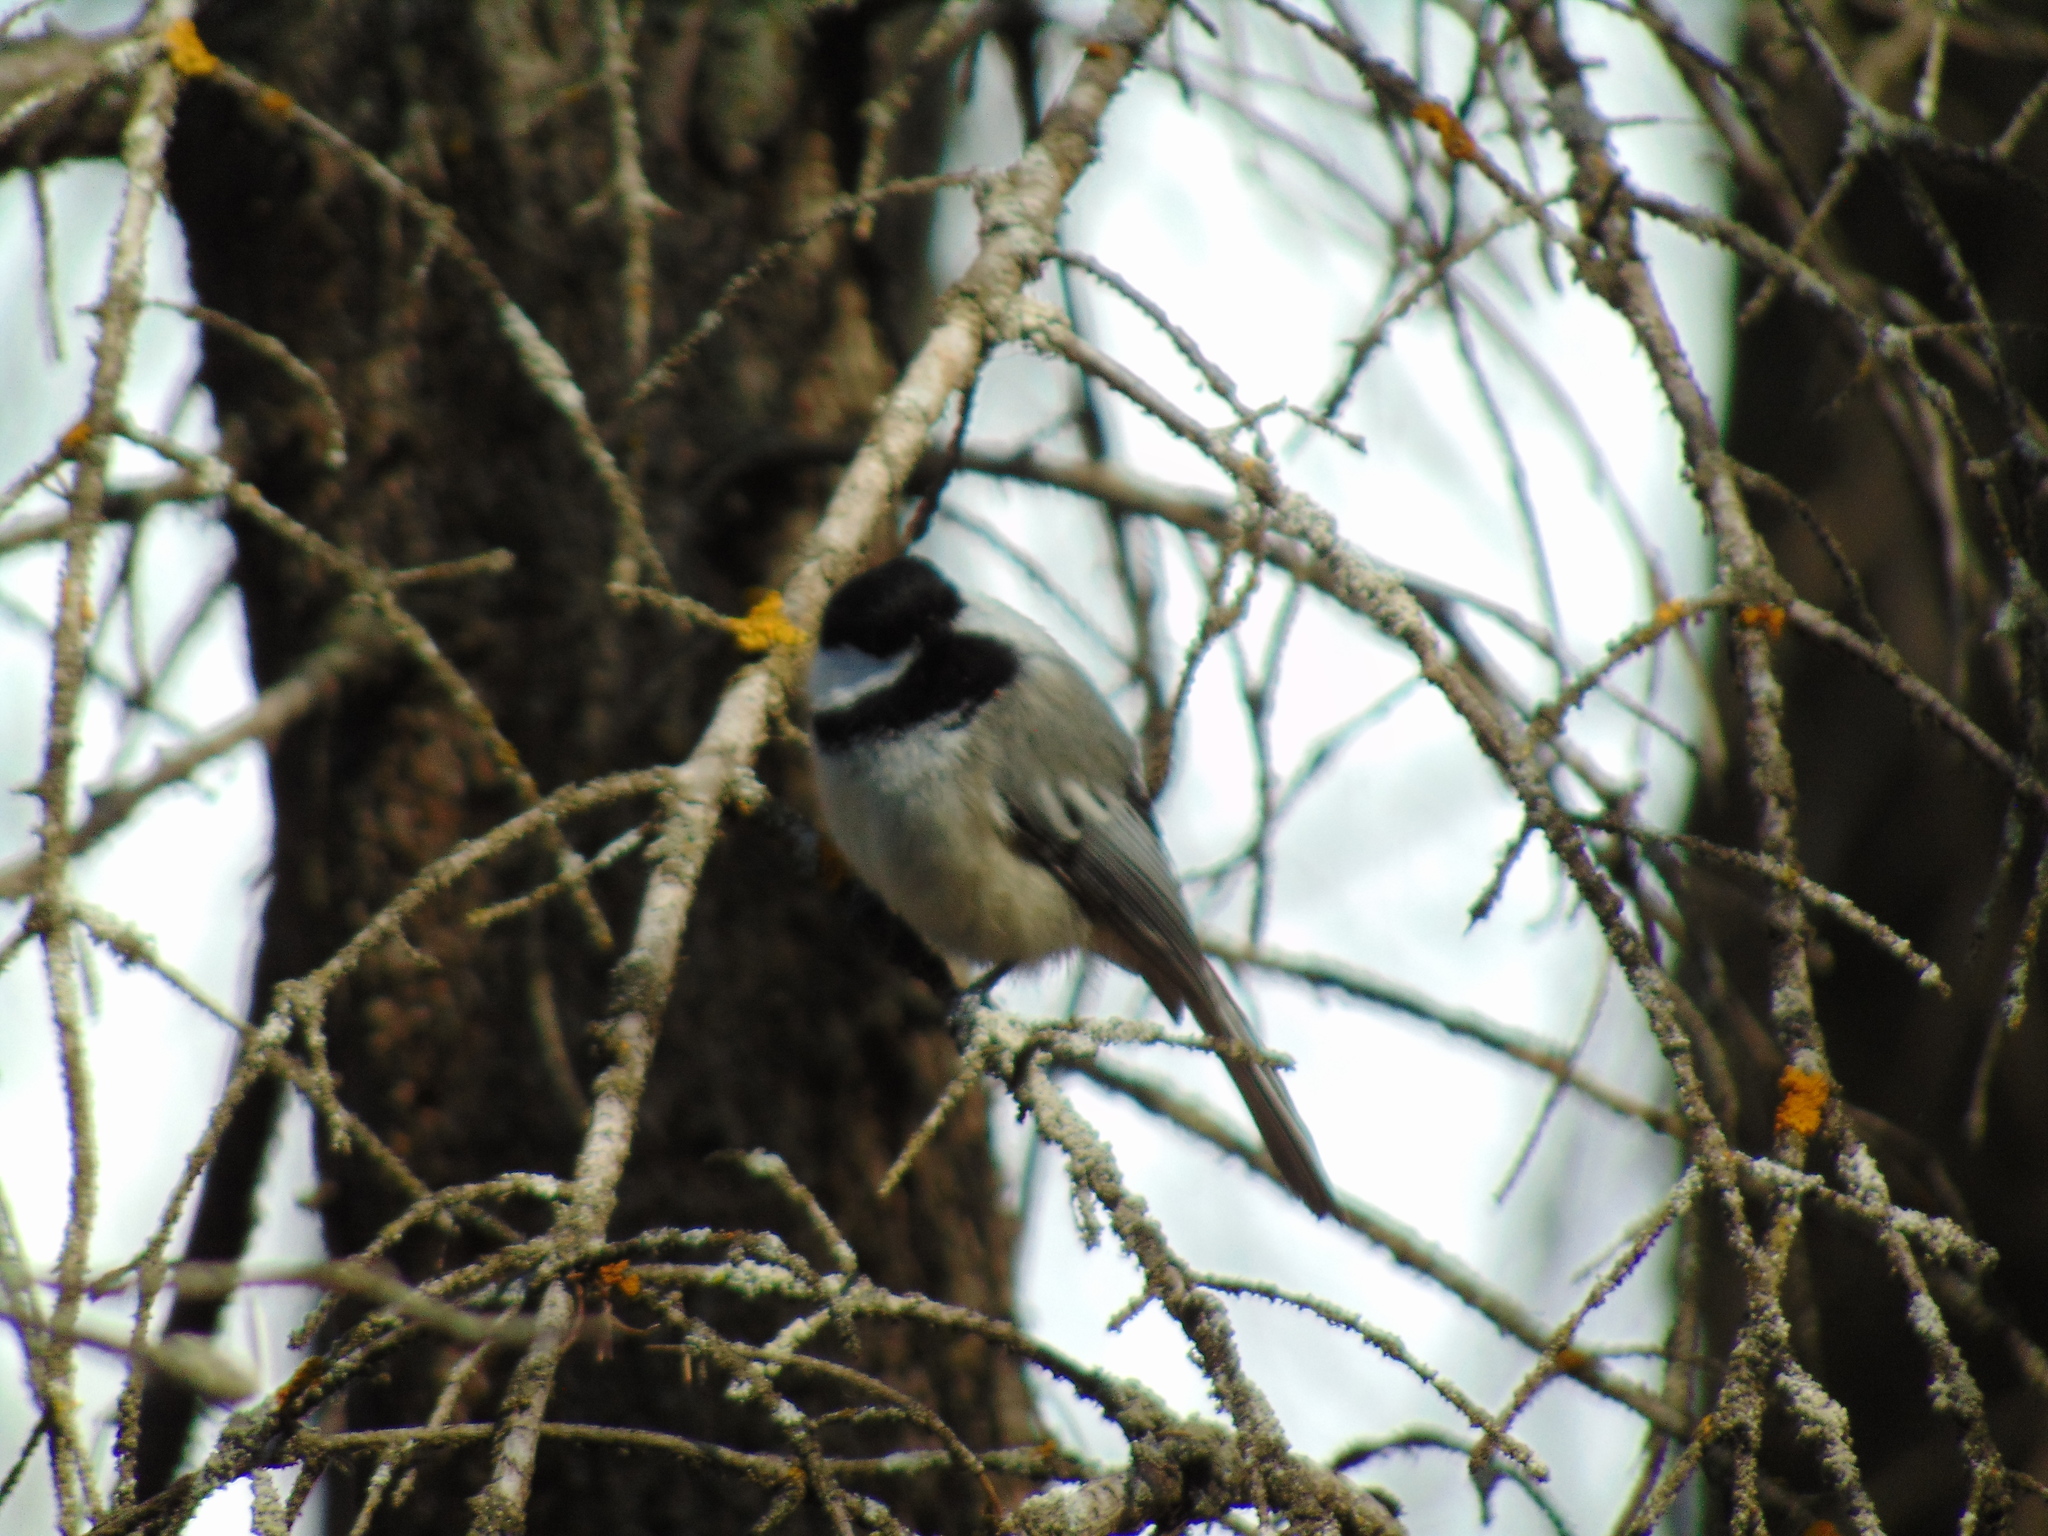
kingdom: Animalia
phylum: Chordata
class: Aves
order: Passeriformes
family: Paridae
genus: Poecile
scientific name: Poecile atricapillus
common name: Black-capped chickadee
